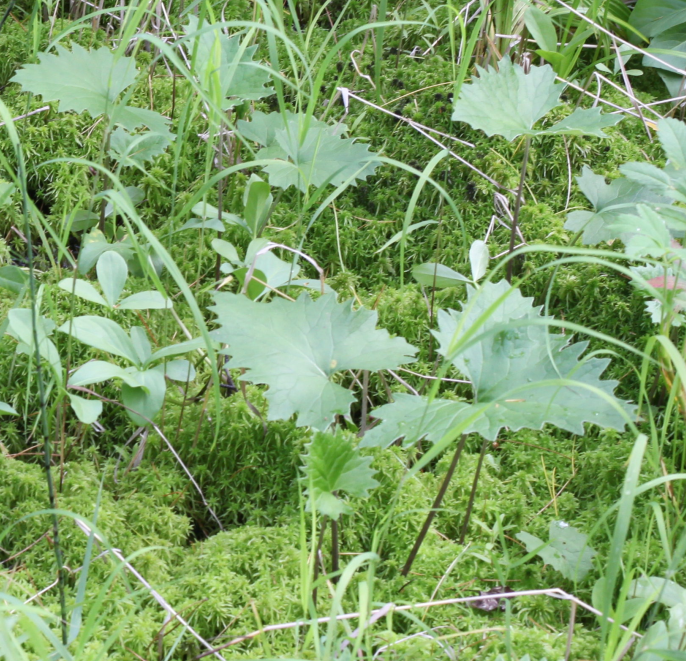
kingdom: Plantae
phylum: Tracheophyta
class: Magnoliopsida
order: Asterales
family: Asteraceae
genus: Petasites
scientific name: Petasites frigidus
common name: Arctic butterbur
